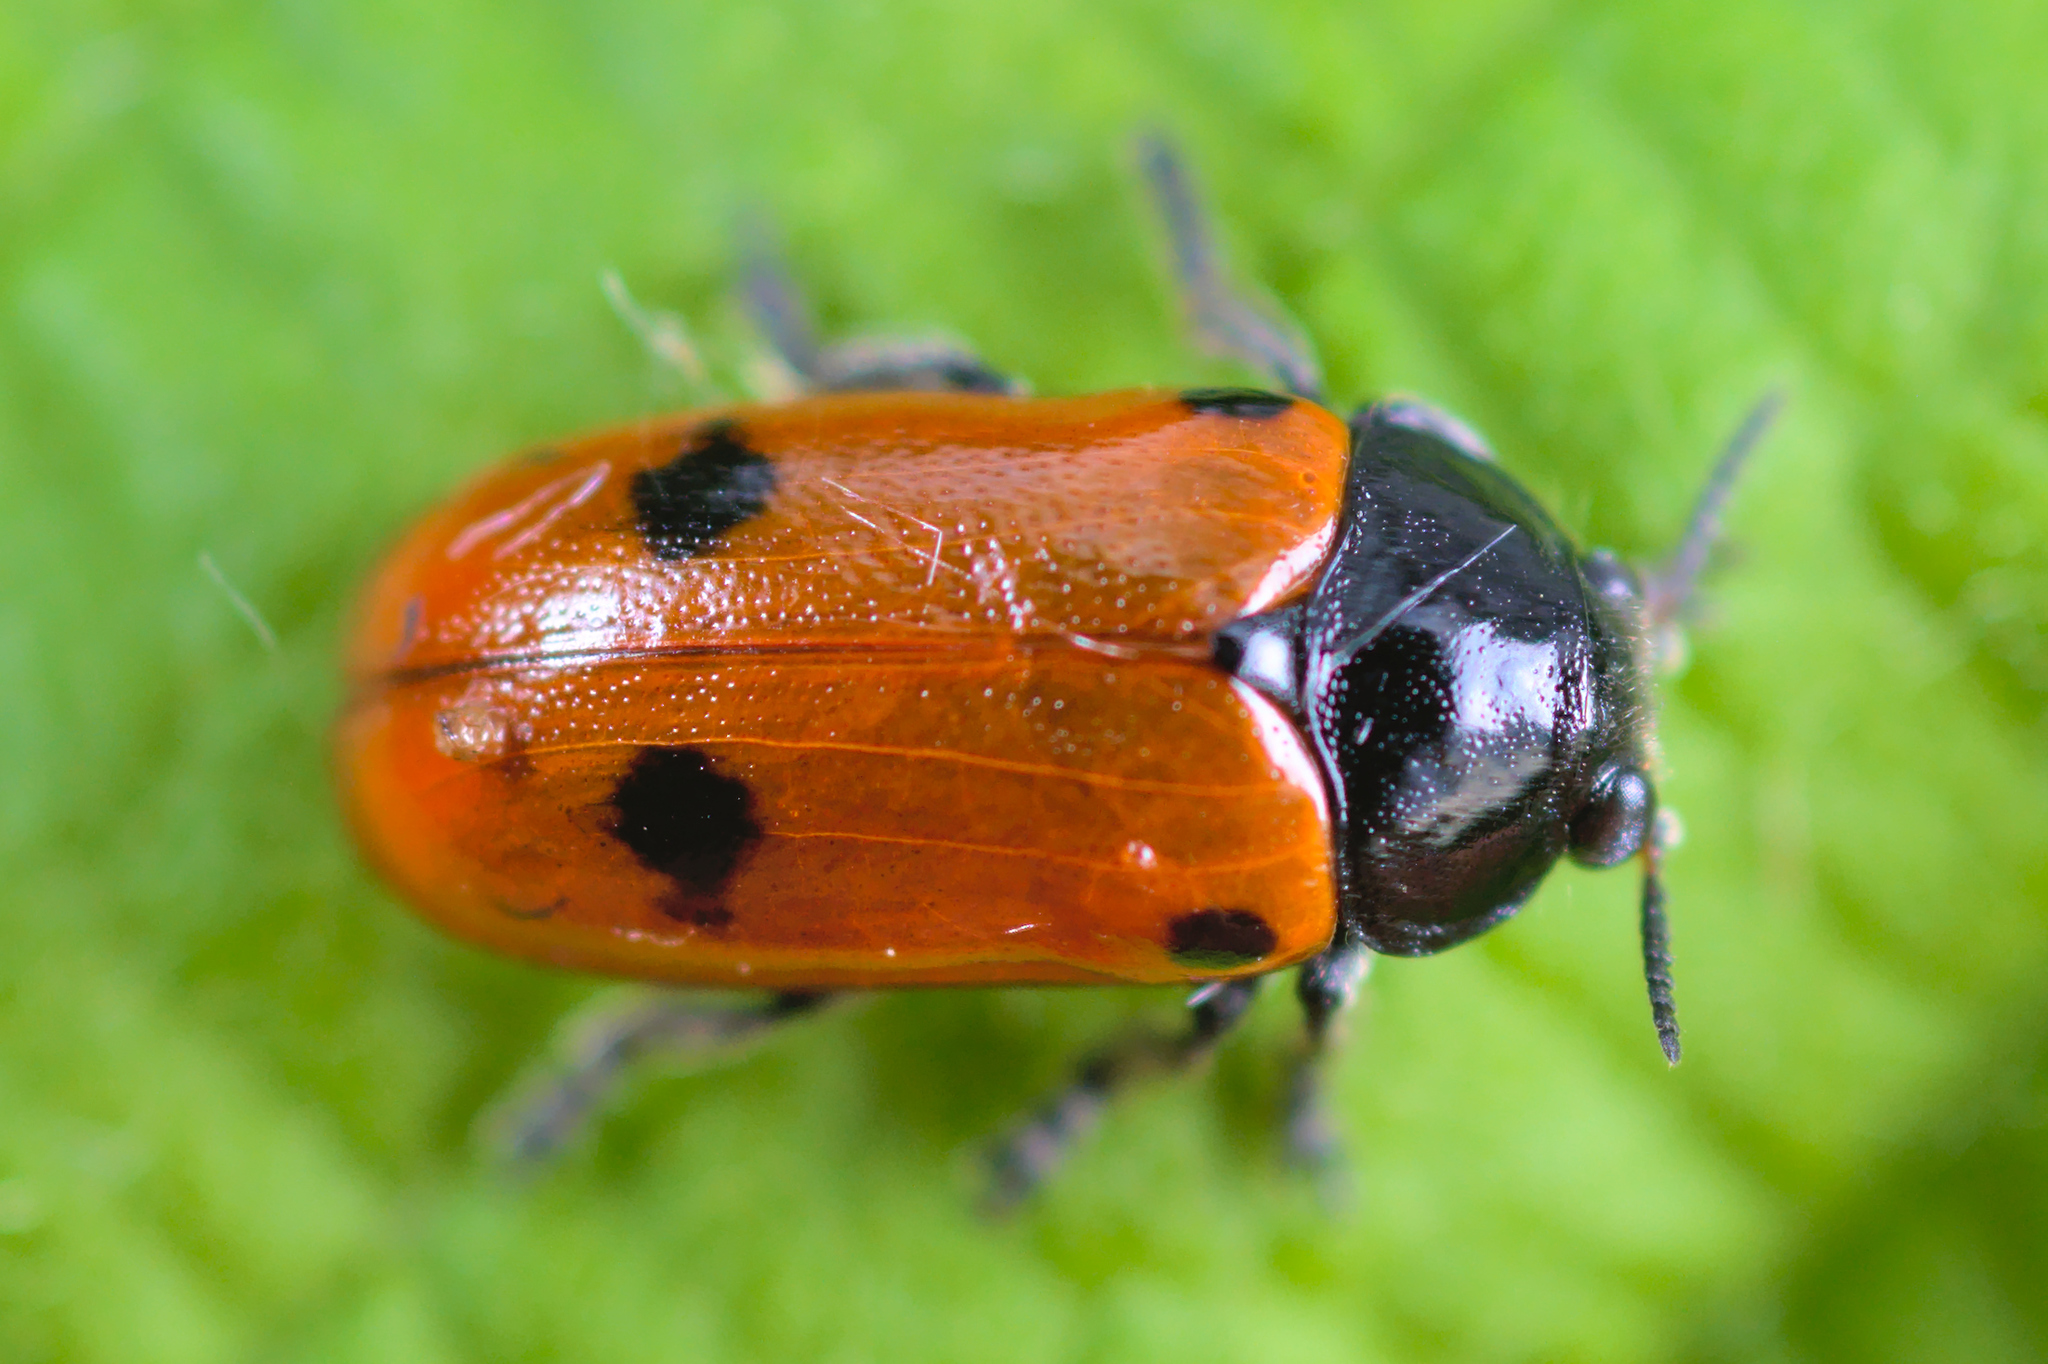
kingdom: Animalia
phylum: Arthropoda
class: Insecta
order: Coleoptera
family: Chrysomelidae
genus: Clytra
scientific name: Clytra quadripunctata
